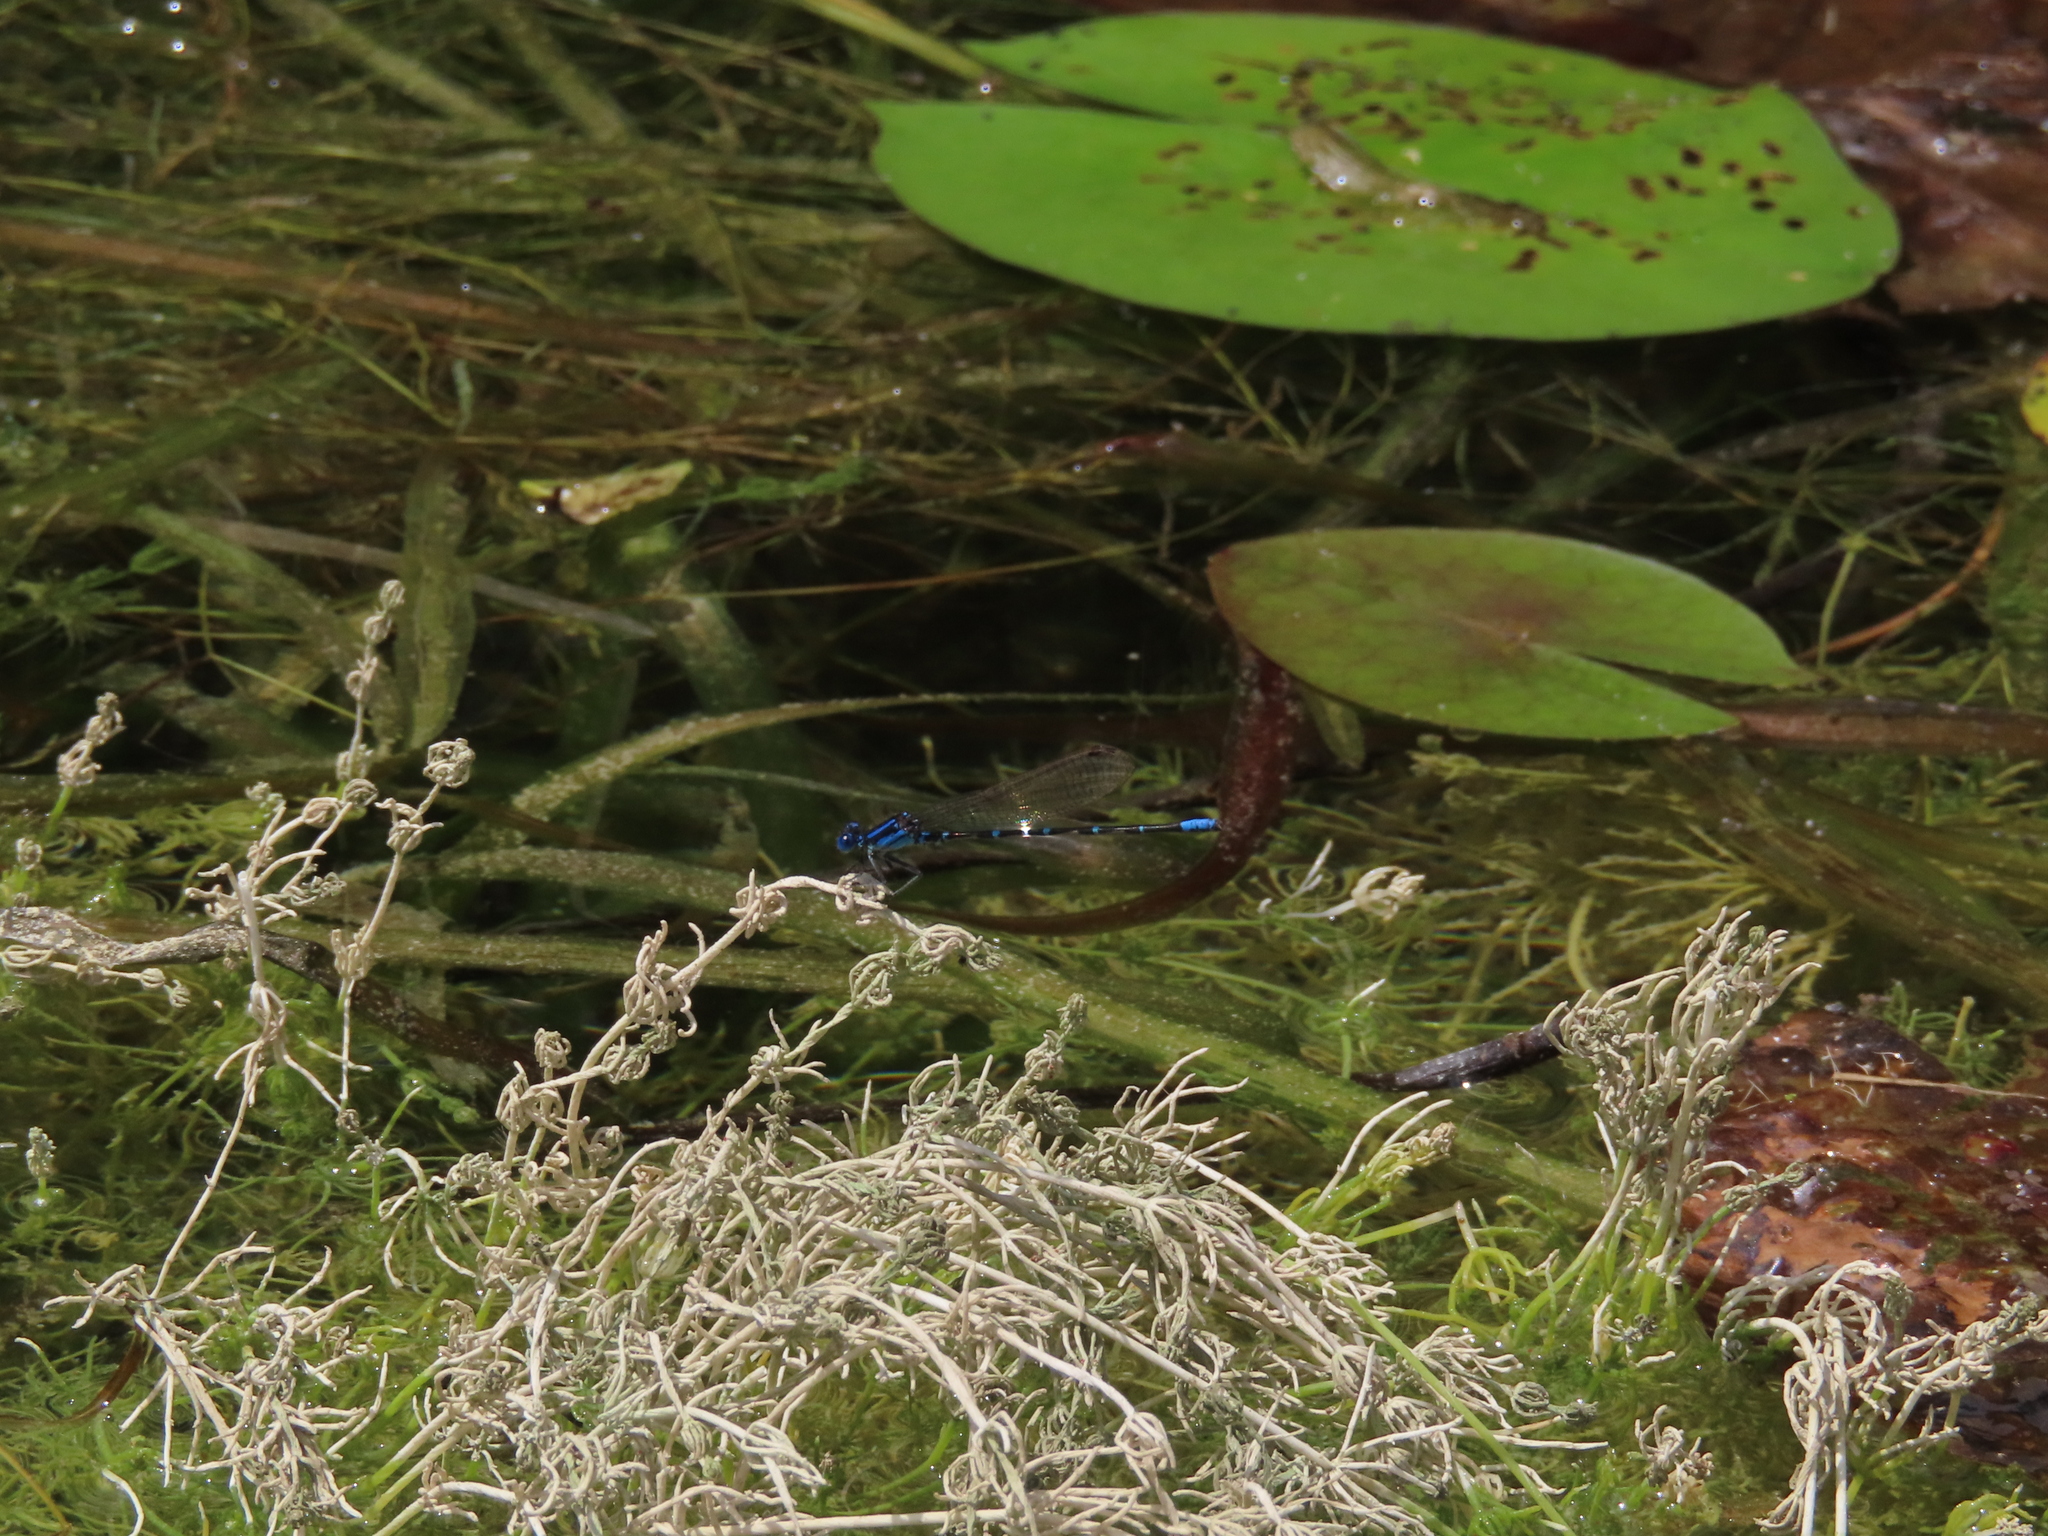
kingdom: Animalia
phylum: Arthropoda
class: Insecta
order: Odonata
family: Coenagrionidae
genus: Argia
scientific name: Argia sedula
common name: Blue-ringed dancer
